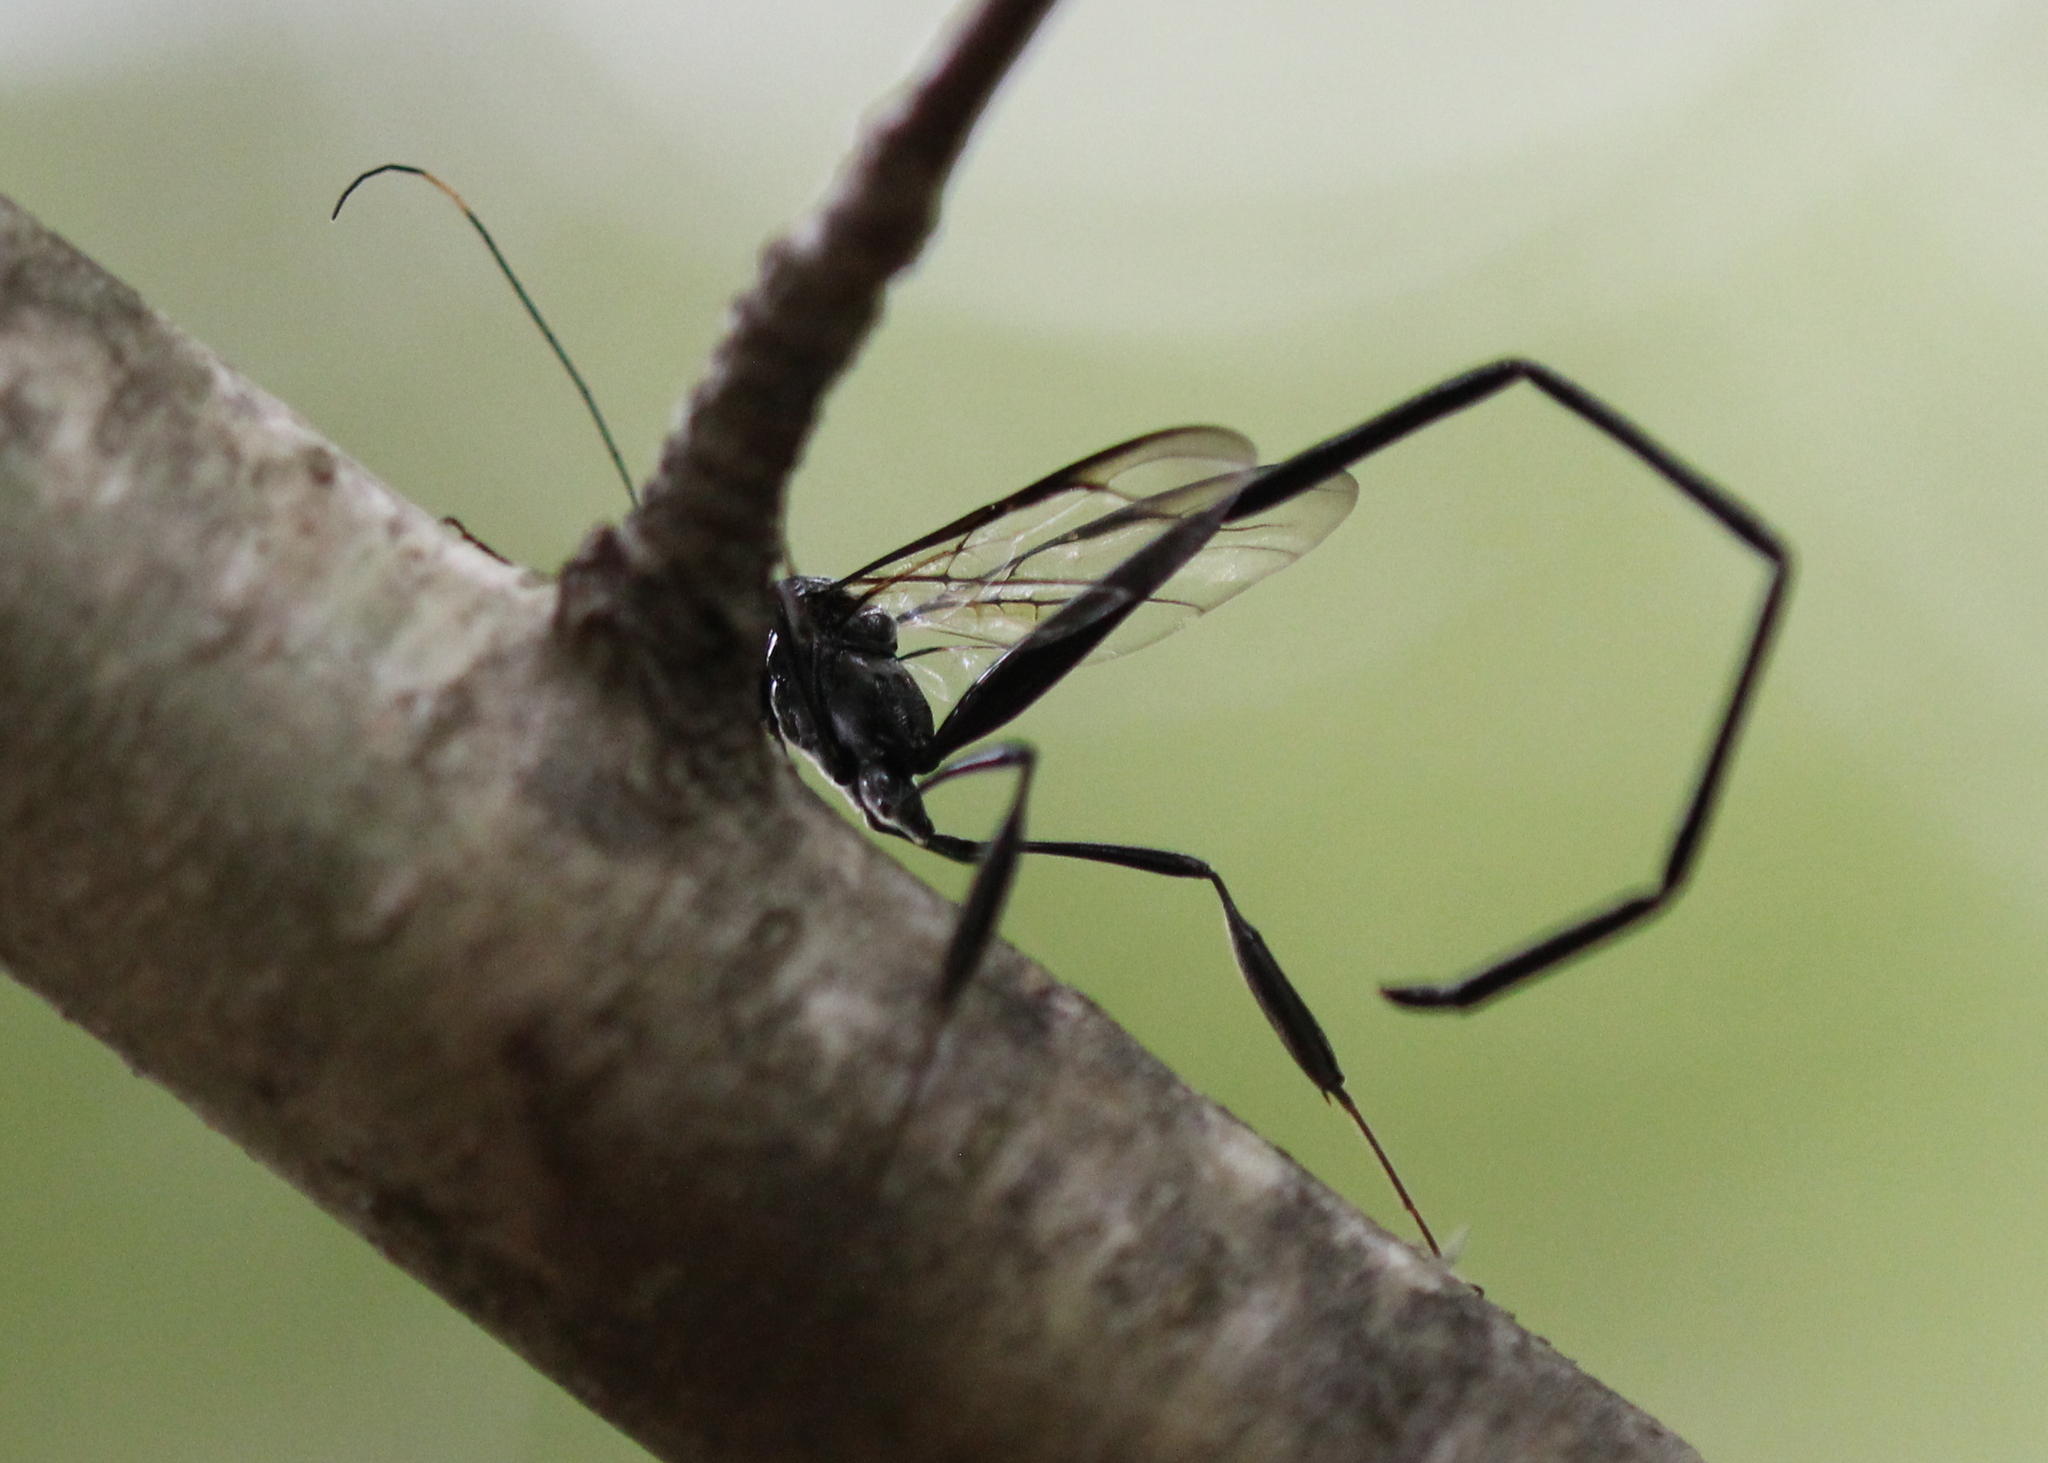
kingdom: Animalia
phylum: Arthropoda
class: Insecta
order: Hymenoptera
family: Pelecinidae
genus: Pelecinus
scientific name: Pelecinus polyturator
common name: American pelecinid wasp
